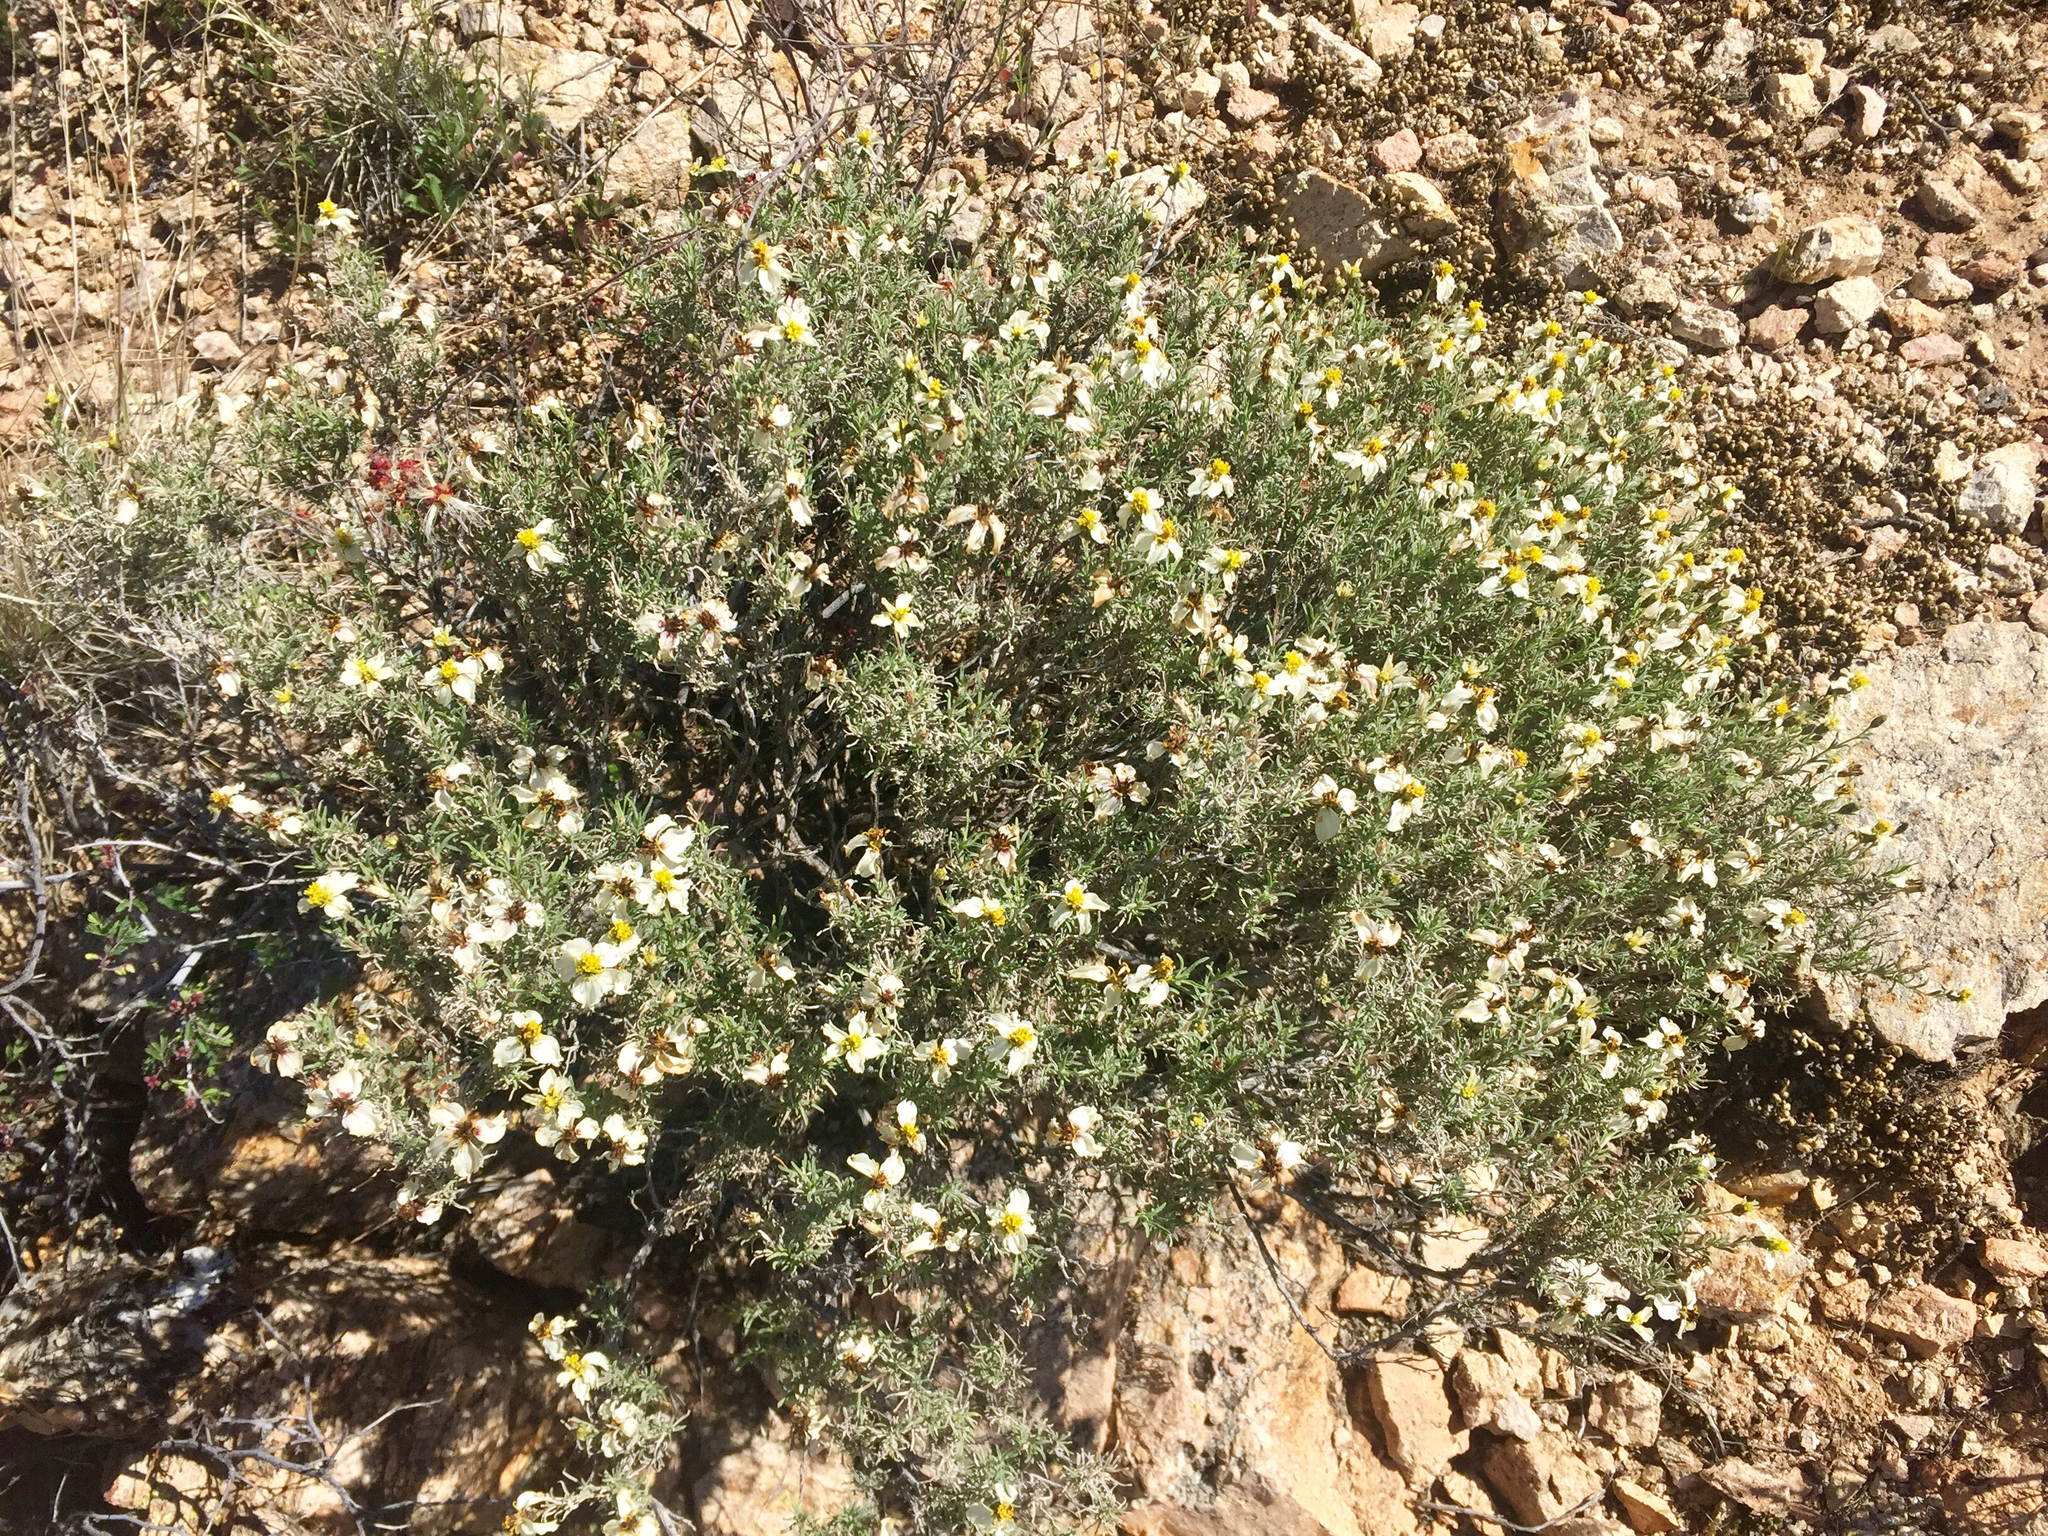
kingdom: Plantae
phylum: Tracheophyta
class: Magnoliopsida
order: Asterales
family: Asteraceae
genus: Zinnia
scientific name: Zinnia acerosa
